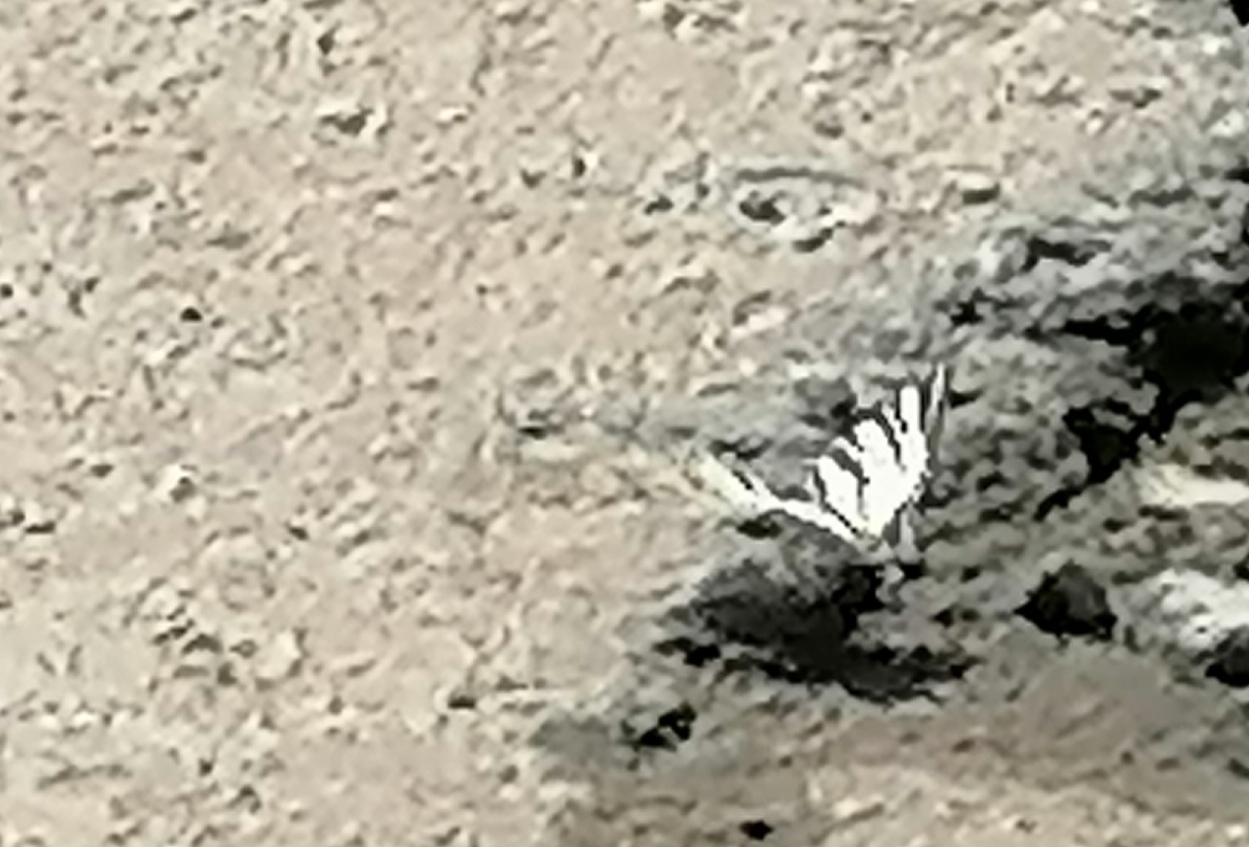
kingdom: Animalia
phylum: Arthropoda
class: Insecta
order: Lepidoptera
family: Papilionidae
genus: Iphiclides
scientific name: Iphiclides podalirius
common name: Scarce swallowtail
